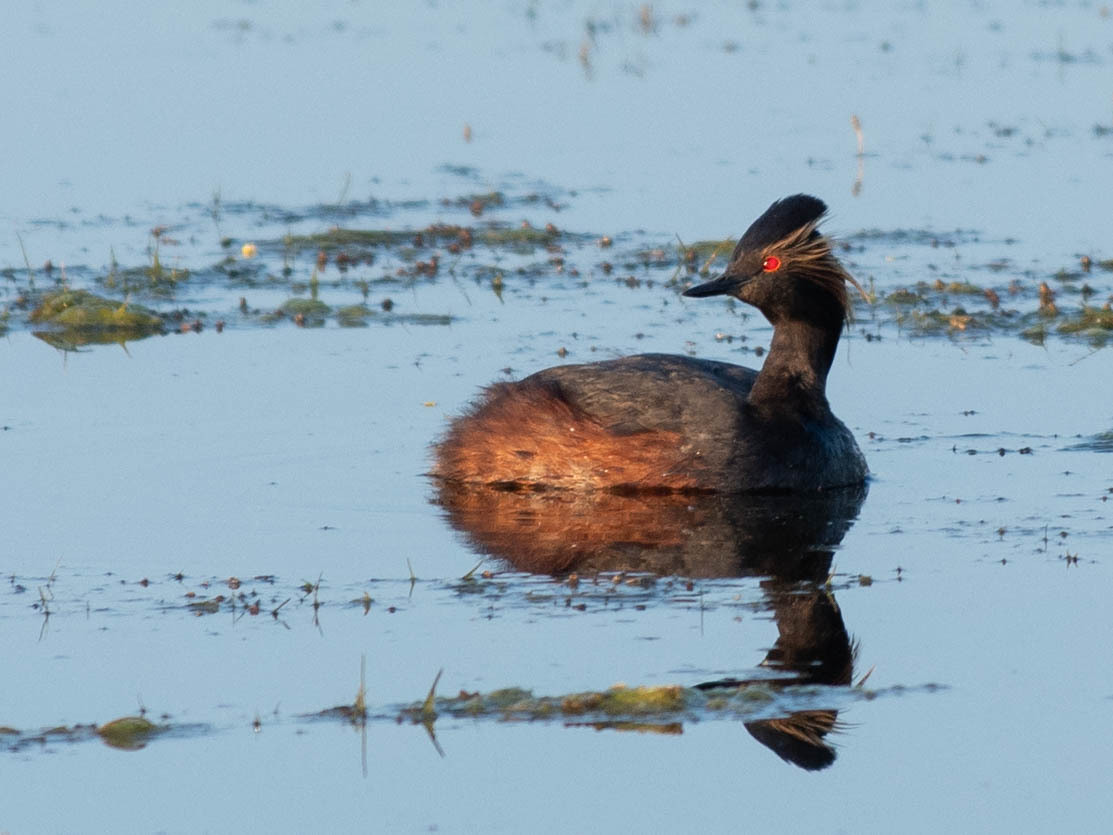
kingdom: Animalia
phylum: Chordata
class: Aves
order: Podicipediformes
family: Podicipedidae
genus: Podiceps
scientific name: Podiceps nigricollis
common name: Black-necked grebe
